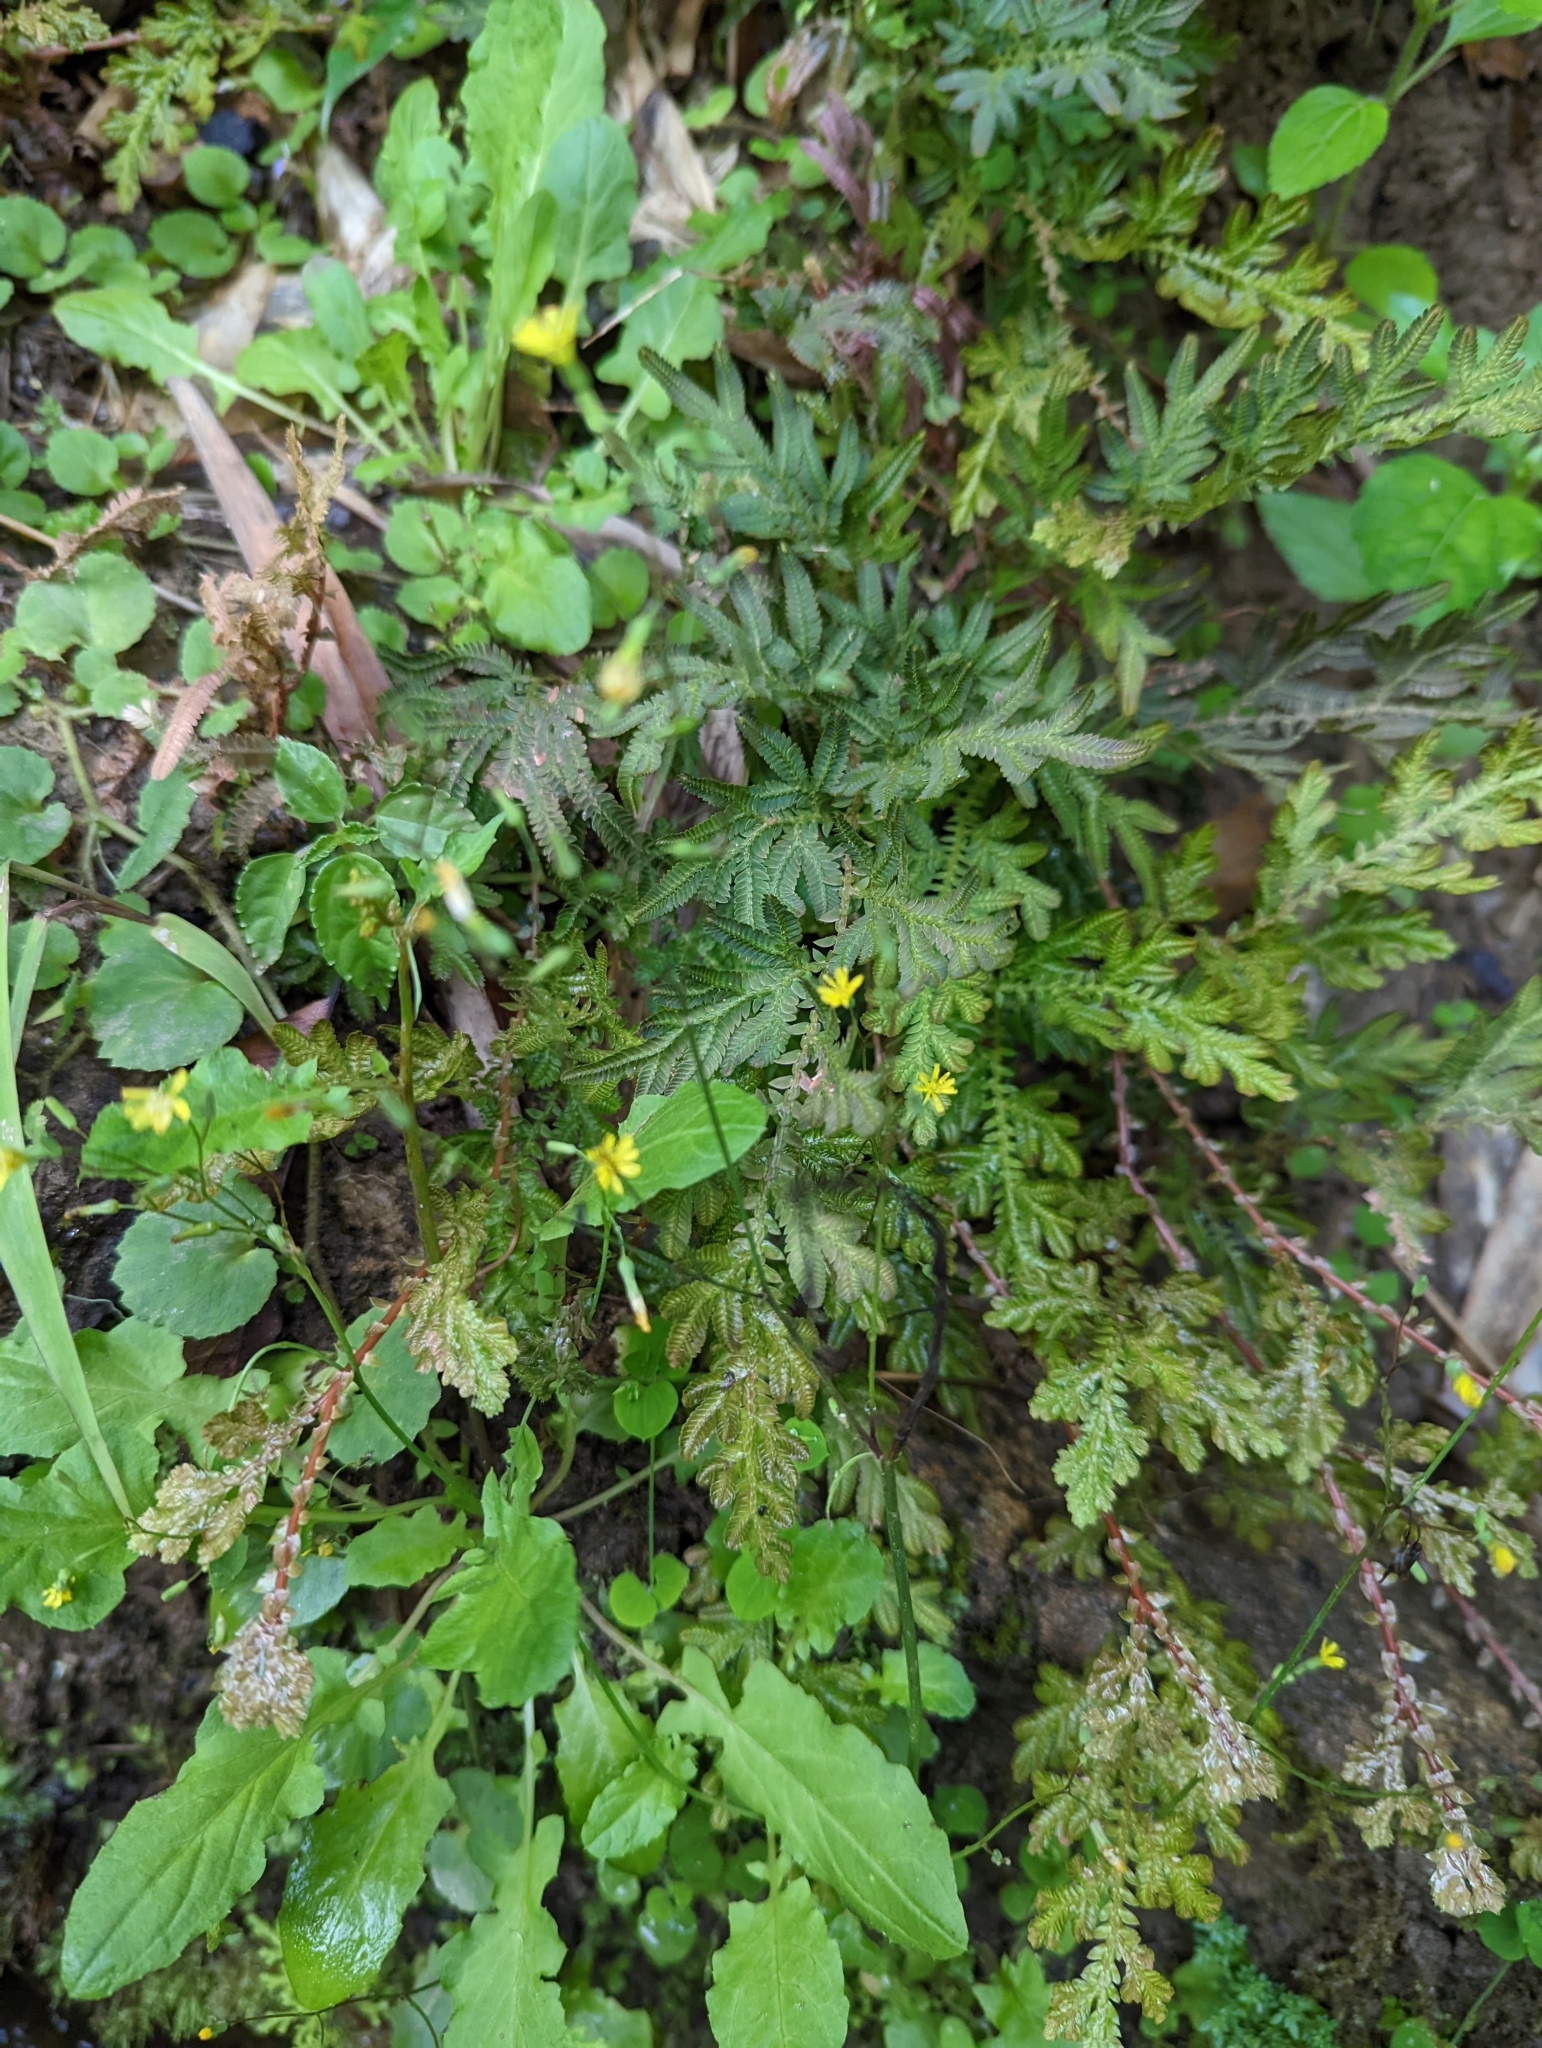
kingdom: Plantae
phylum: Tracheophyta
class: Magnoliopsida
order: Asterales
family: Asteraceae
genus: Youngia
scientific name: Youngia japonica
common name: Oriental false hawksbeard
